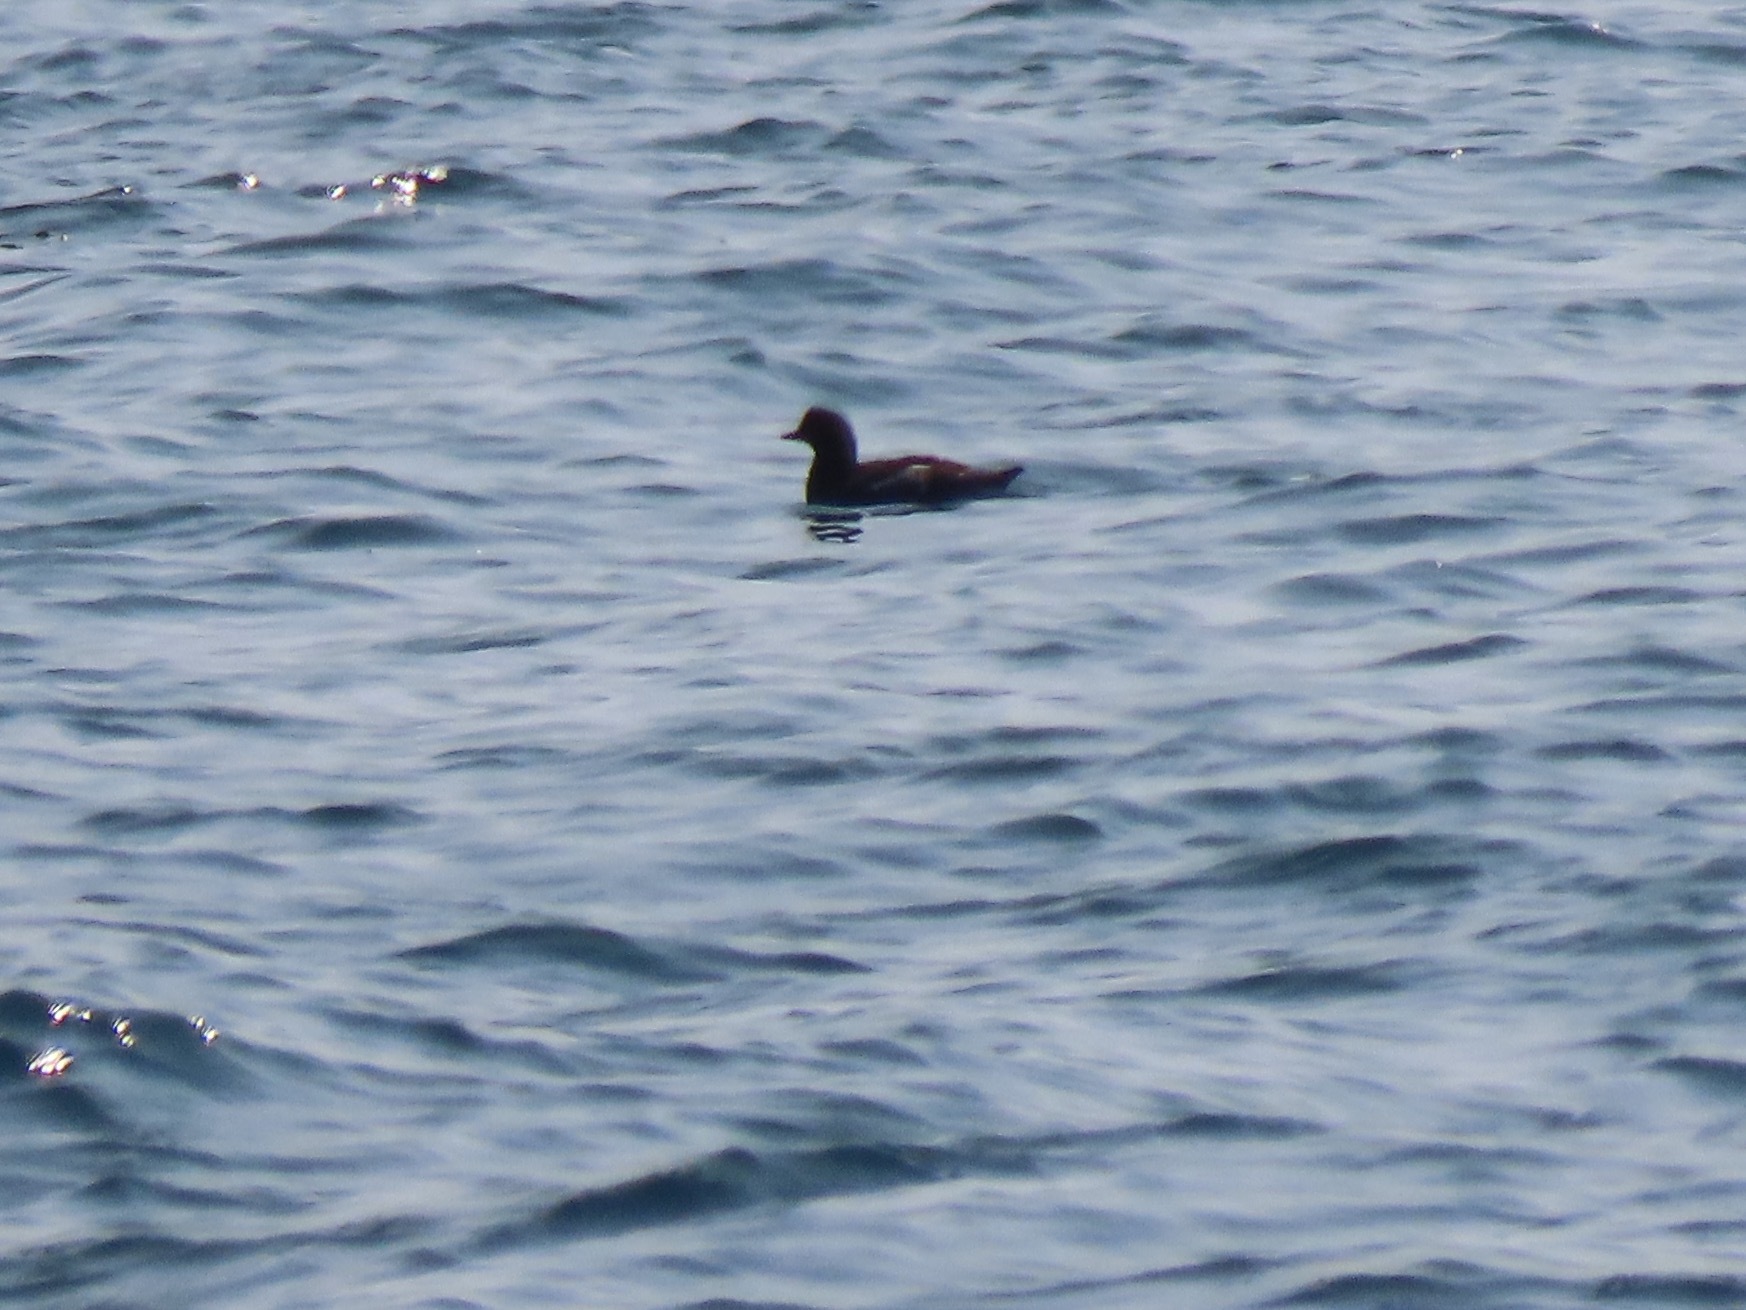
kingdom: Animalia
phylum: Chordata
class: Aves
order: Charadriiformes
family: Alcidae
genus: Cepphus
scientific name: Cepphus columba
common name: Pigeon guillemot
